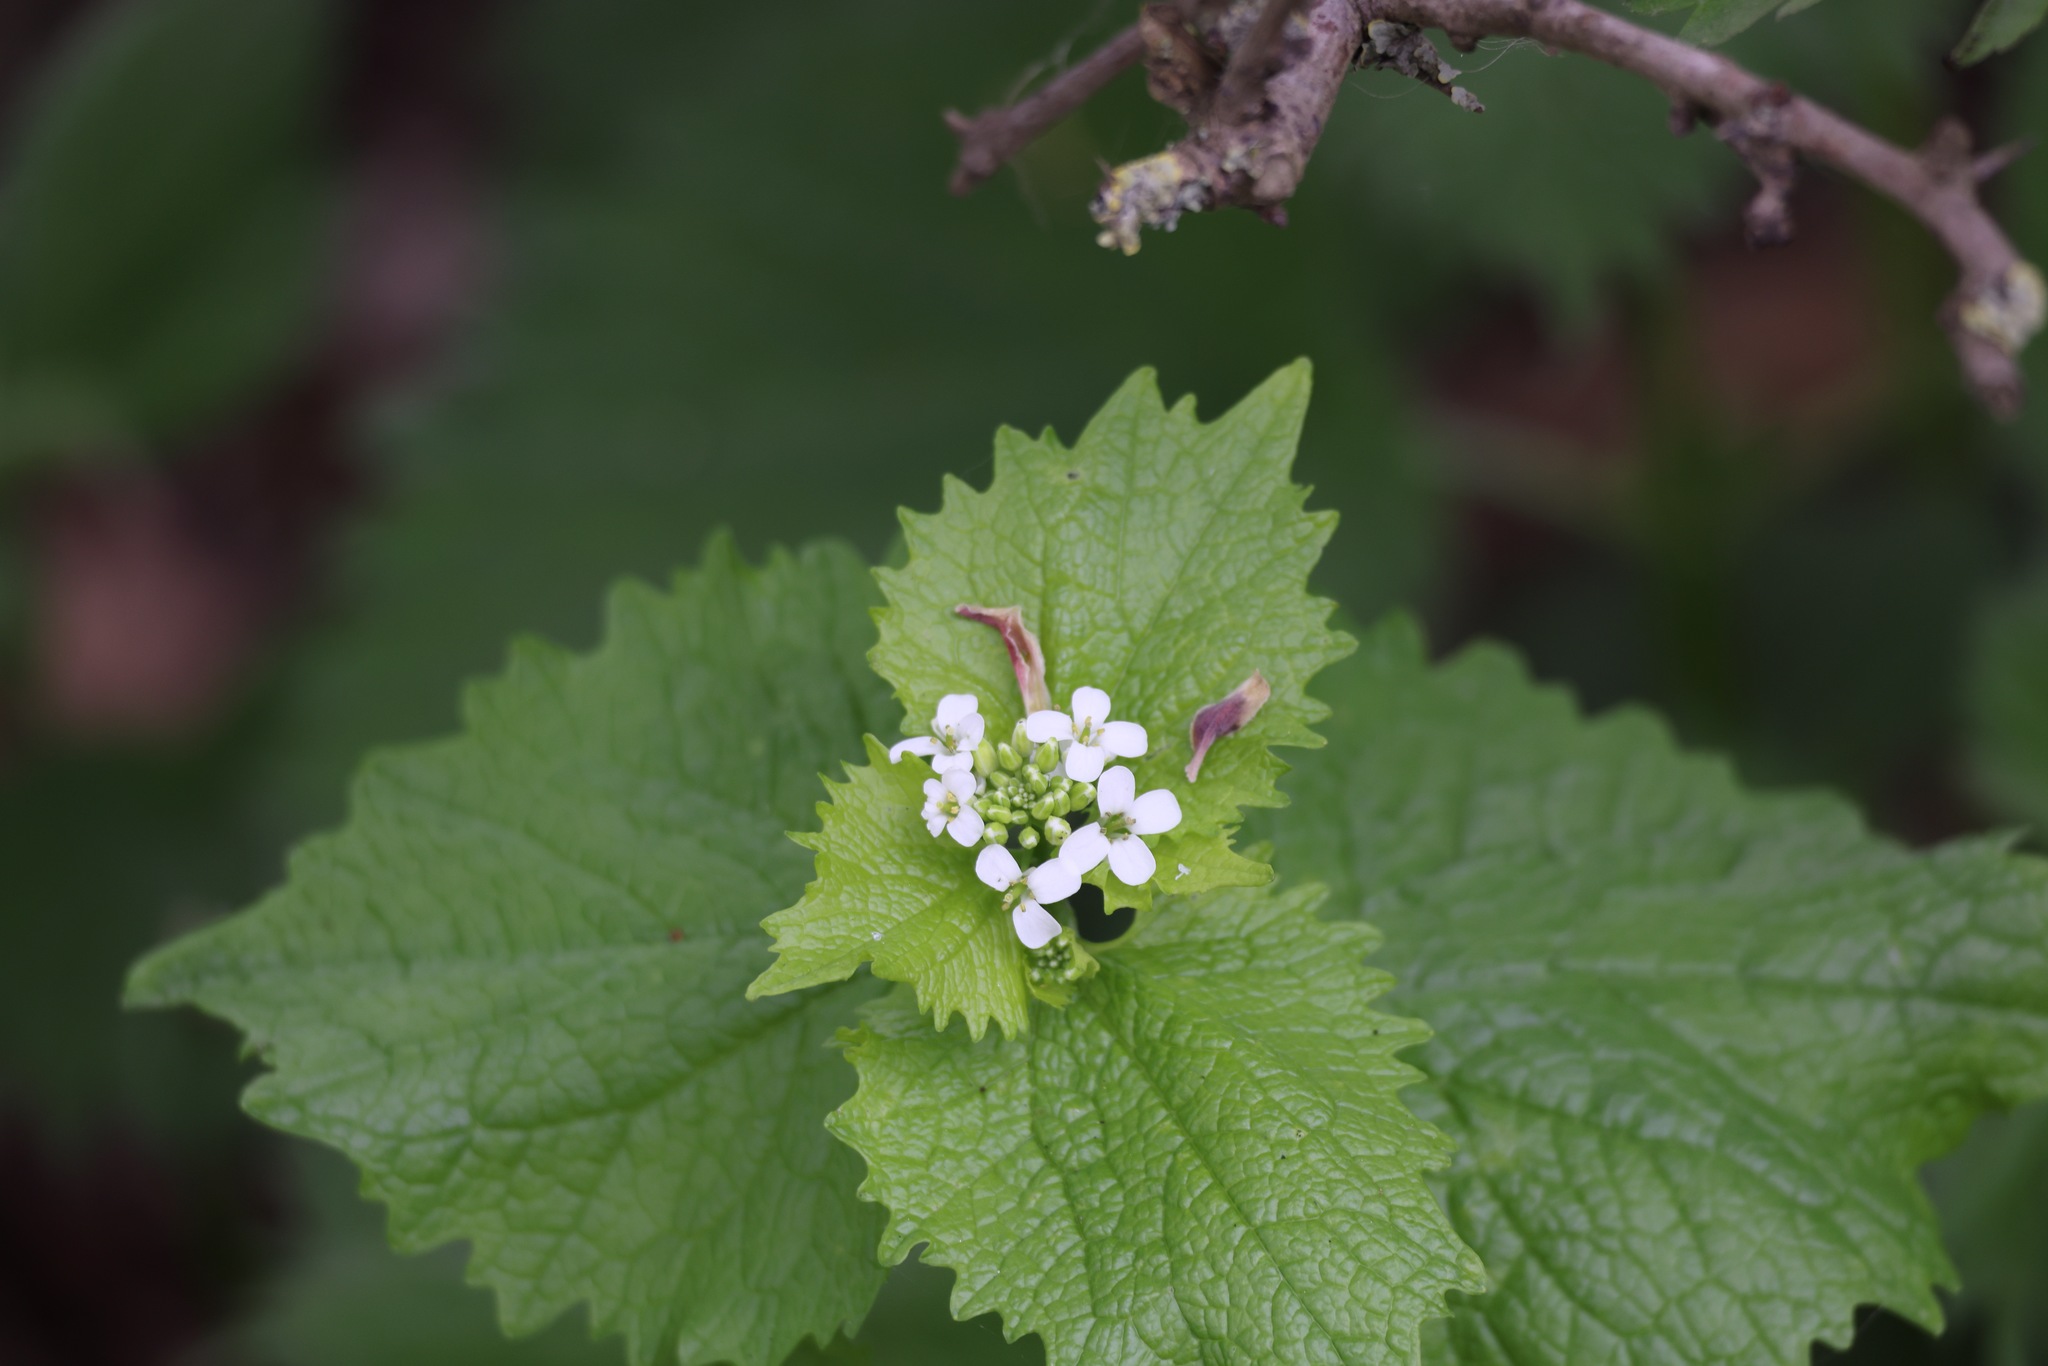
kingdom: Plantae
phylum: Tracheophyta
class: Magnoliopsida
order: Brassicales
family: Brassicaceae
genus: Alliaria
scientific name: Alliaria petiolata
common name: Garlic mustard
